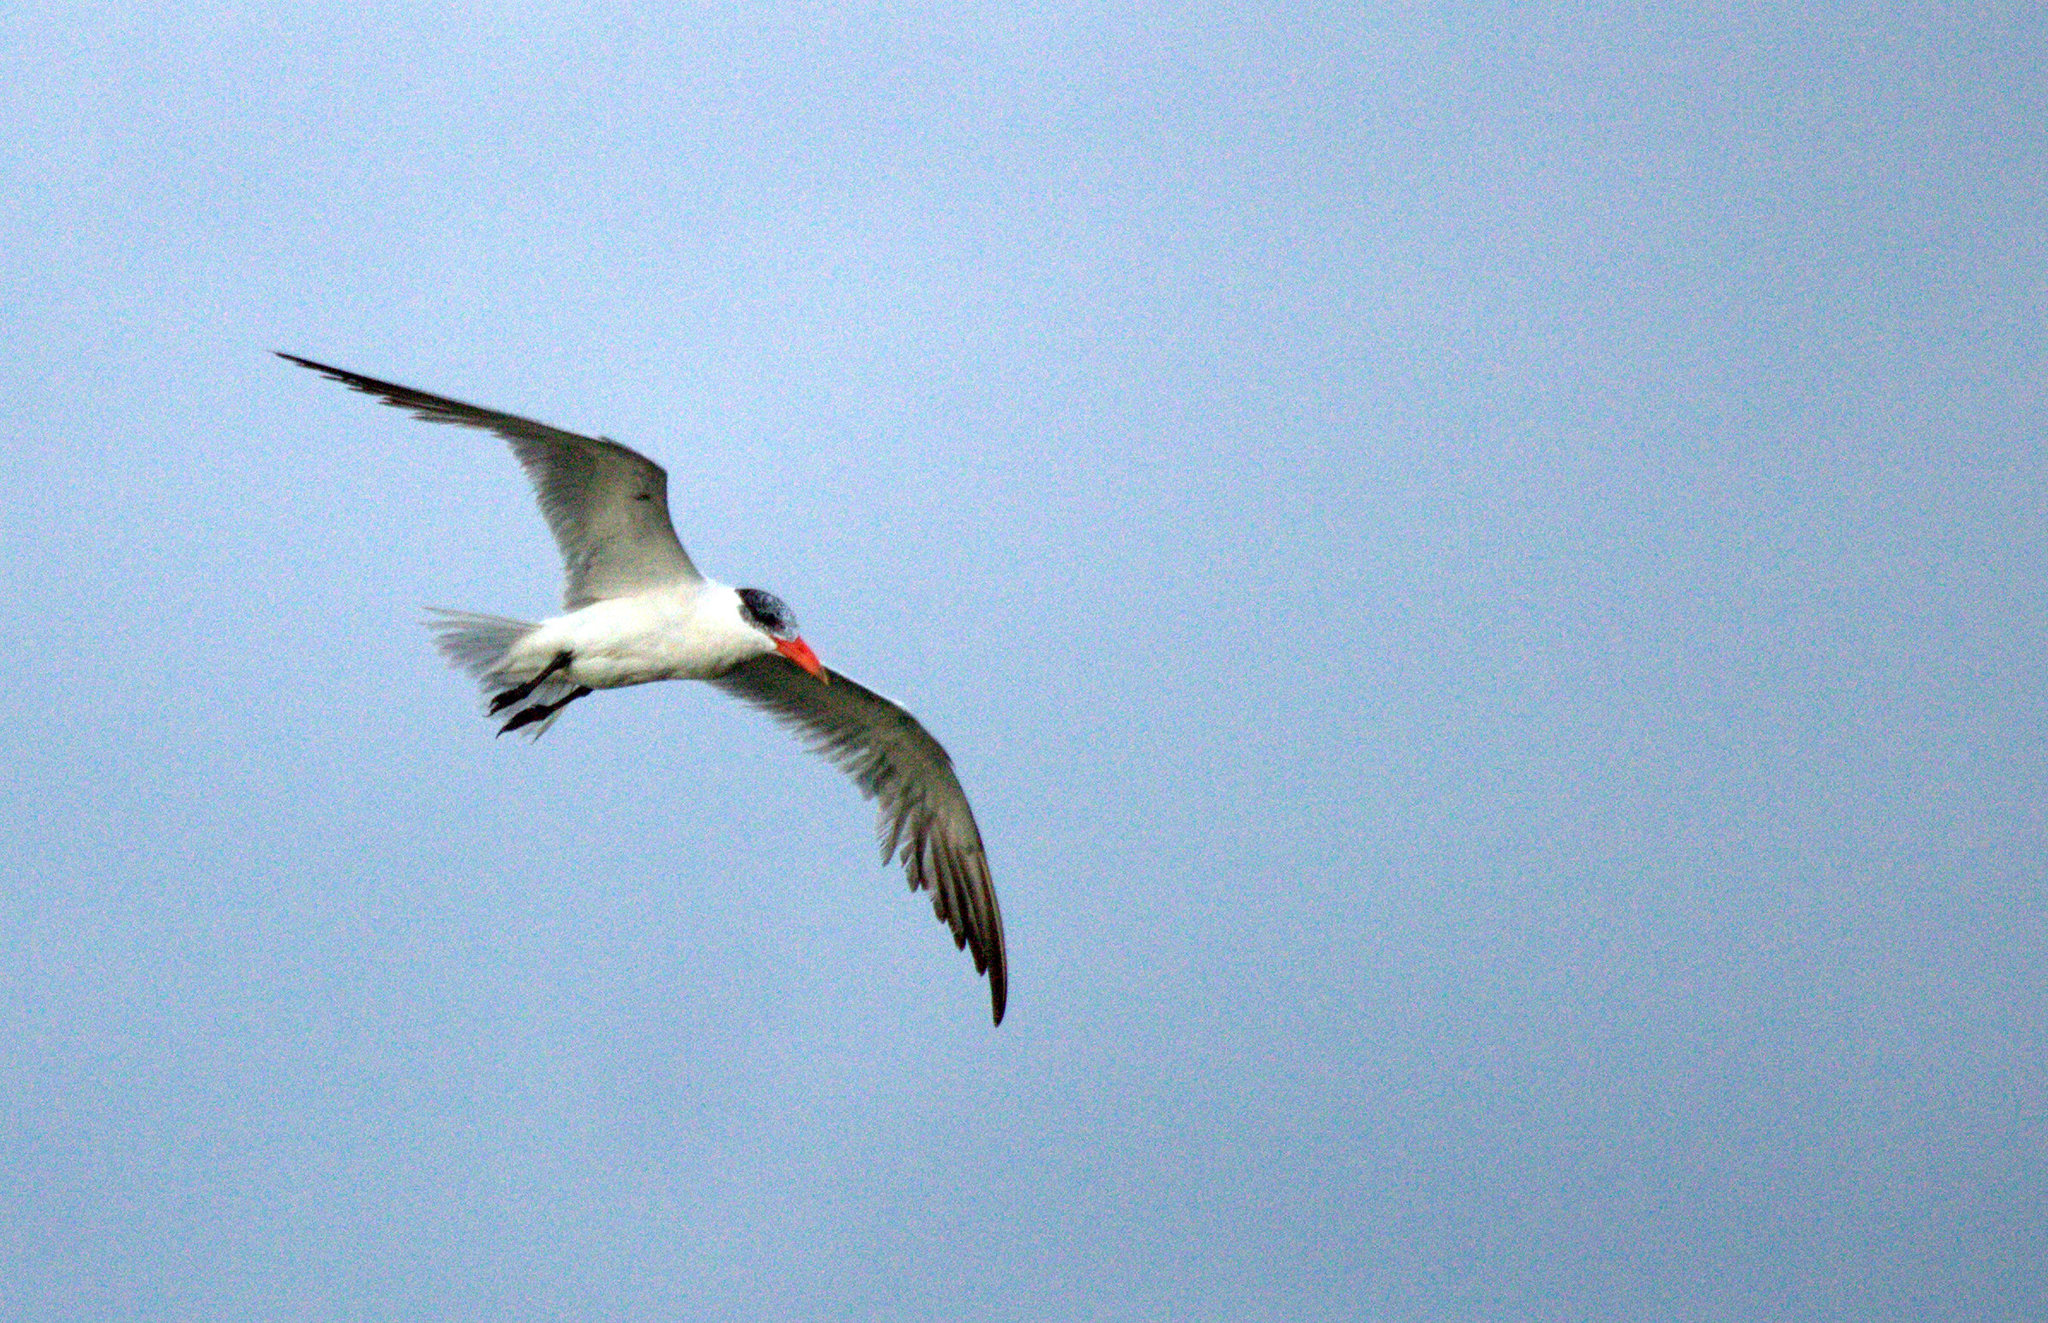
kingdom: Animalia
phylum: Chordata
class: Aves
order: Charadriiformes
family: Laridae
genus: Hydroprogne
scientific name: Hydroprogne caspia
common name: Caspian tern
